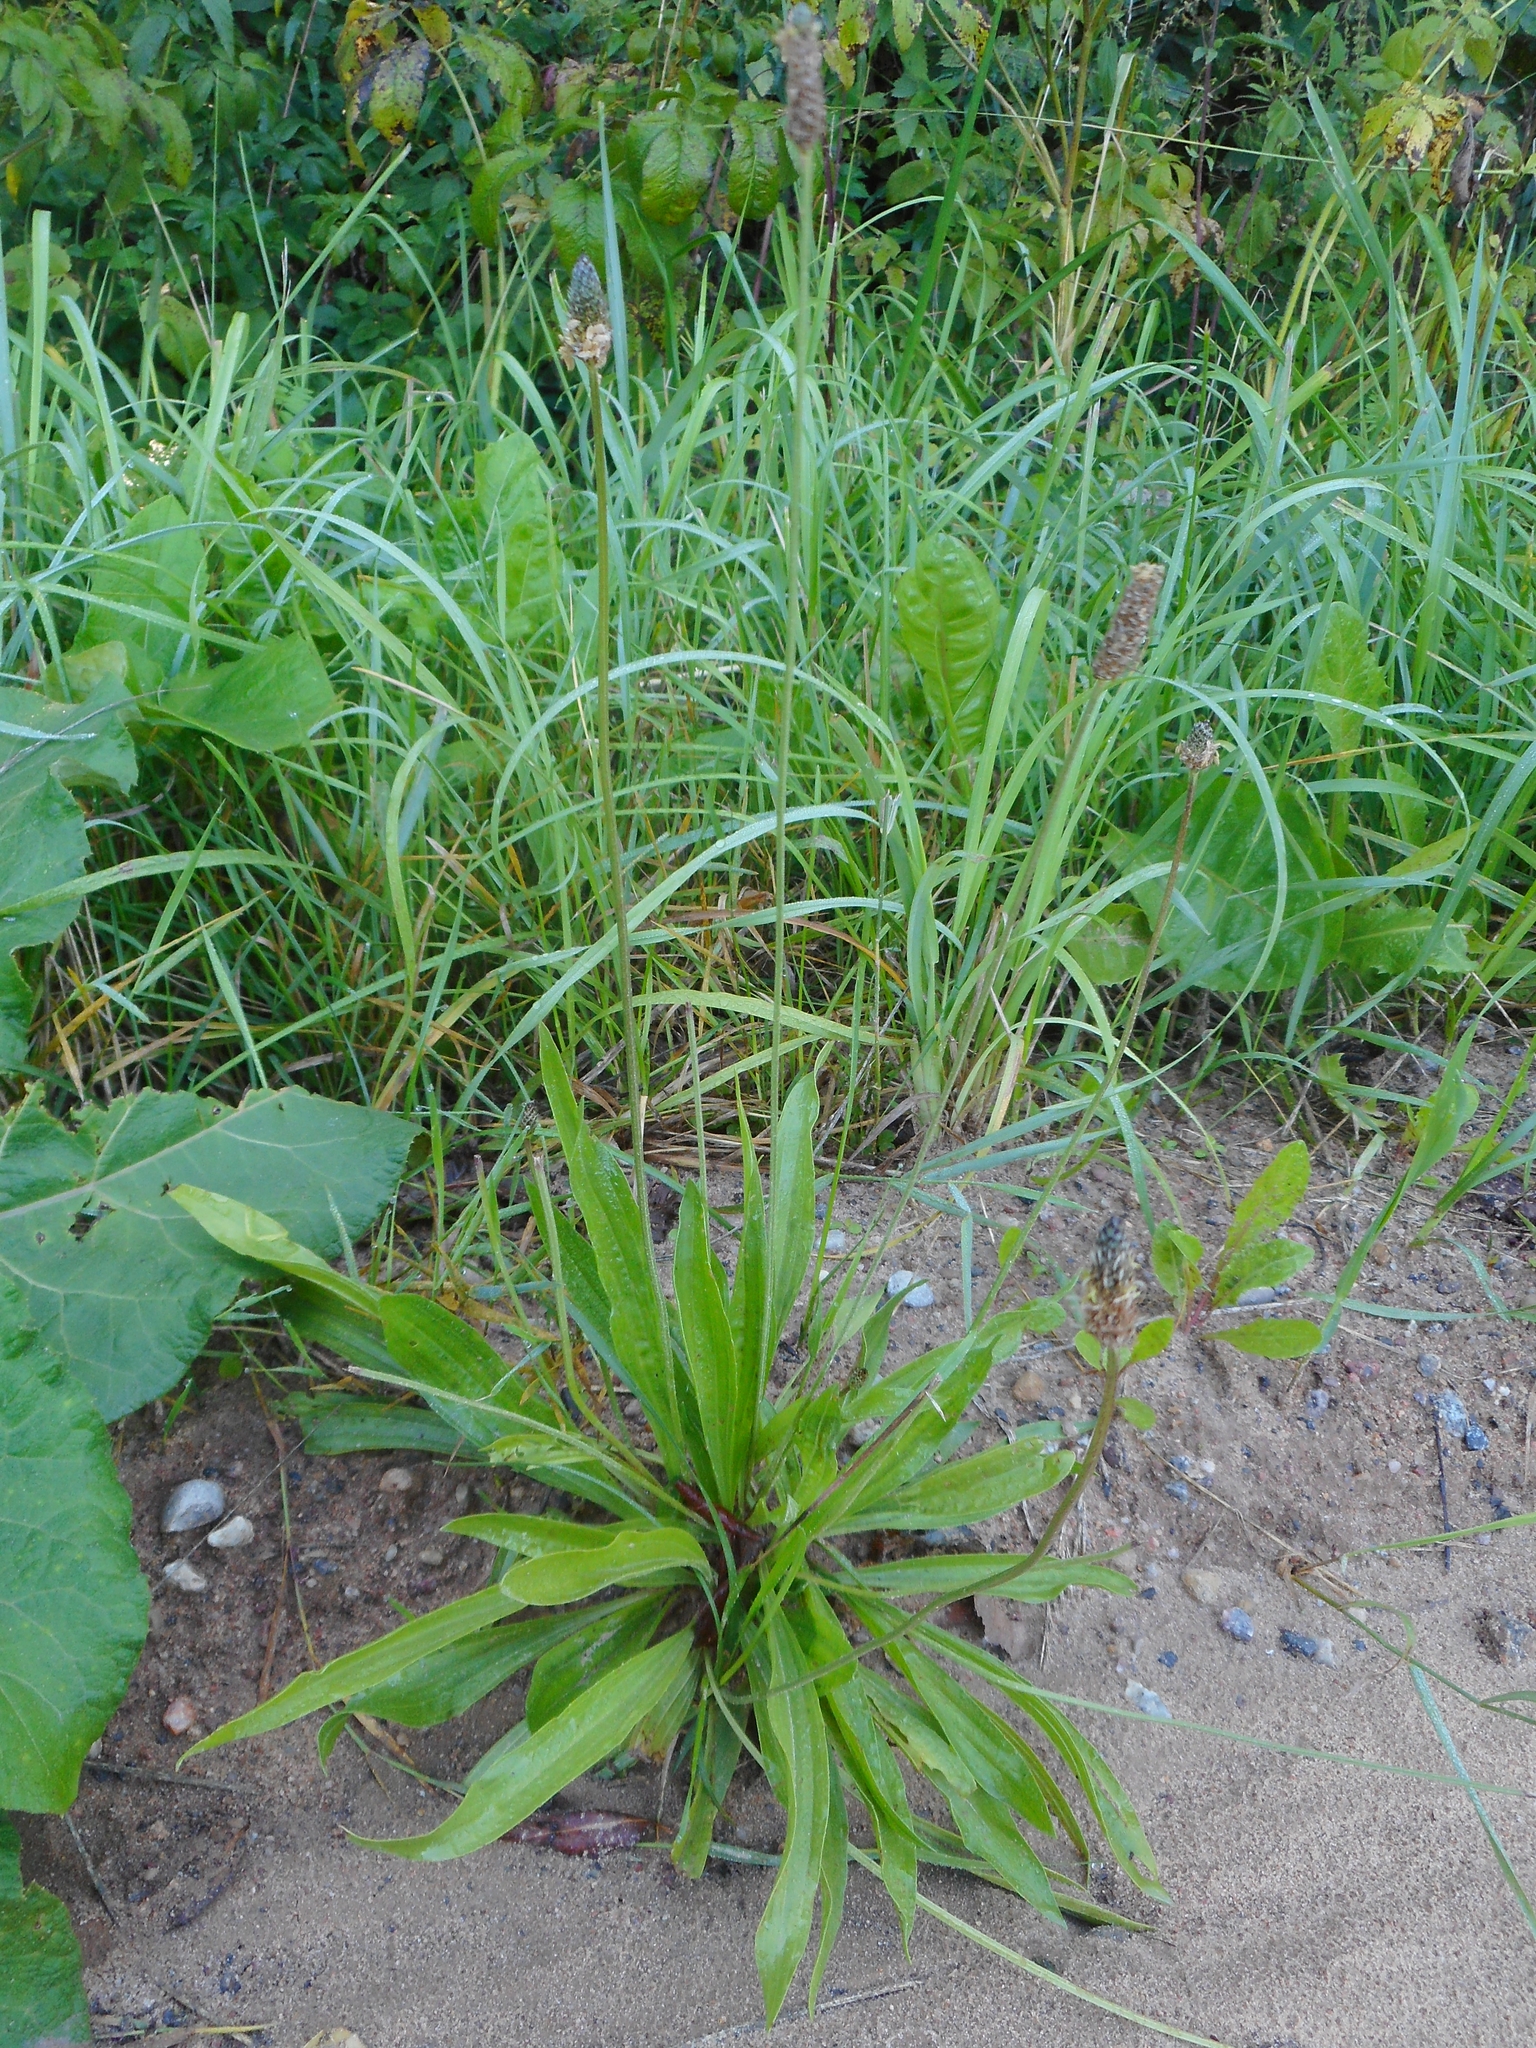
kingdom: Plantae
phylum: Tracheophyta
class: Magnoliopsida
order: Lamiales
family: Plantaginaceae
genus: Plantago
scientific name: Plantago lanceolata
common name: Ribwort plantain
